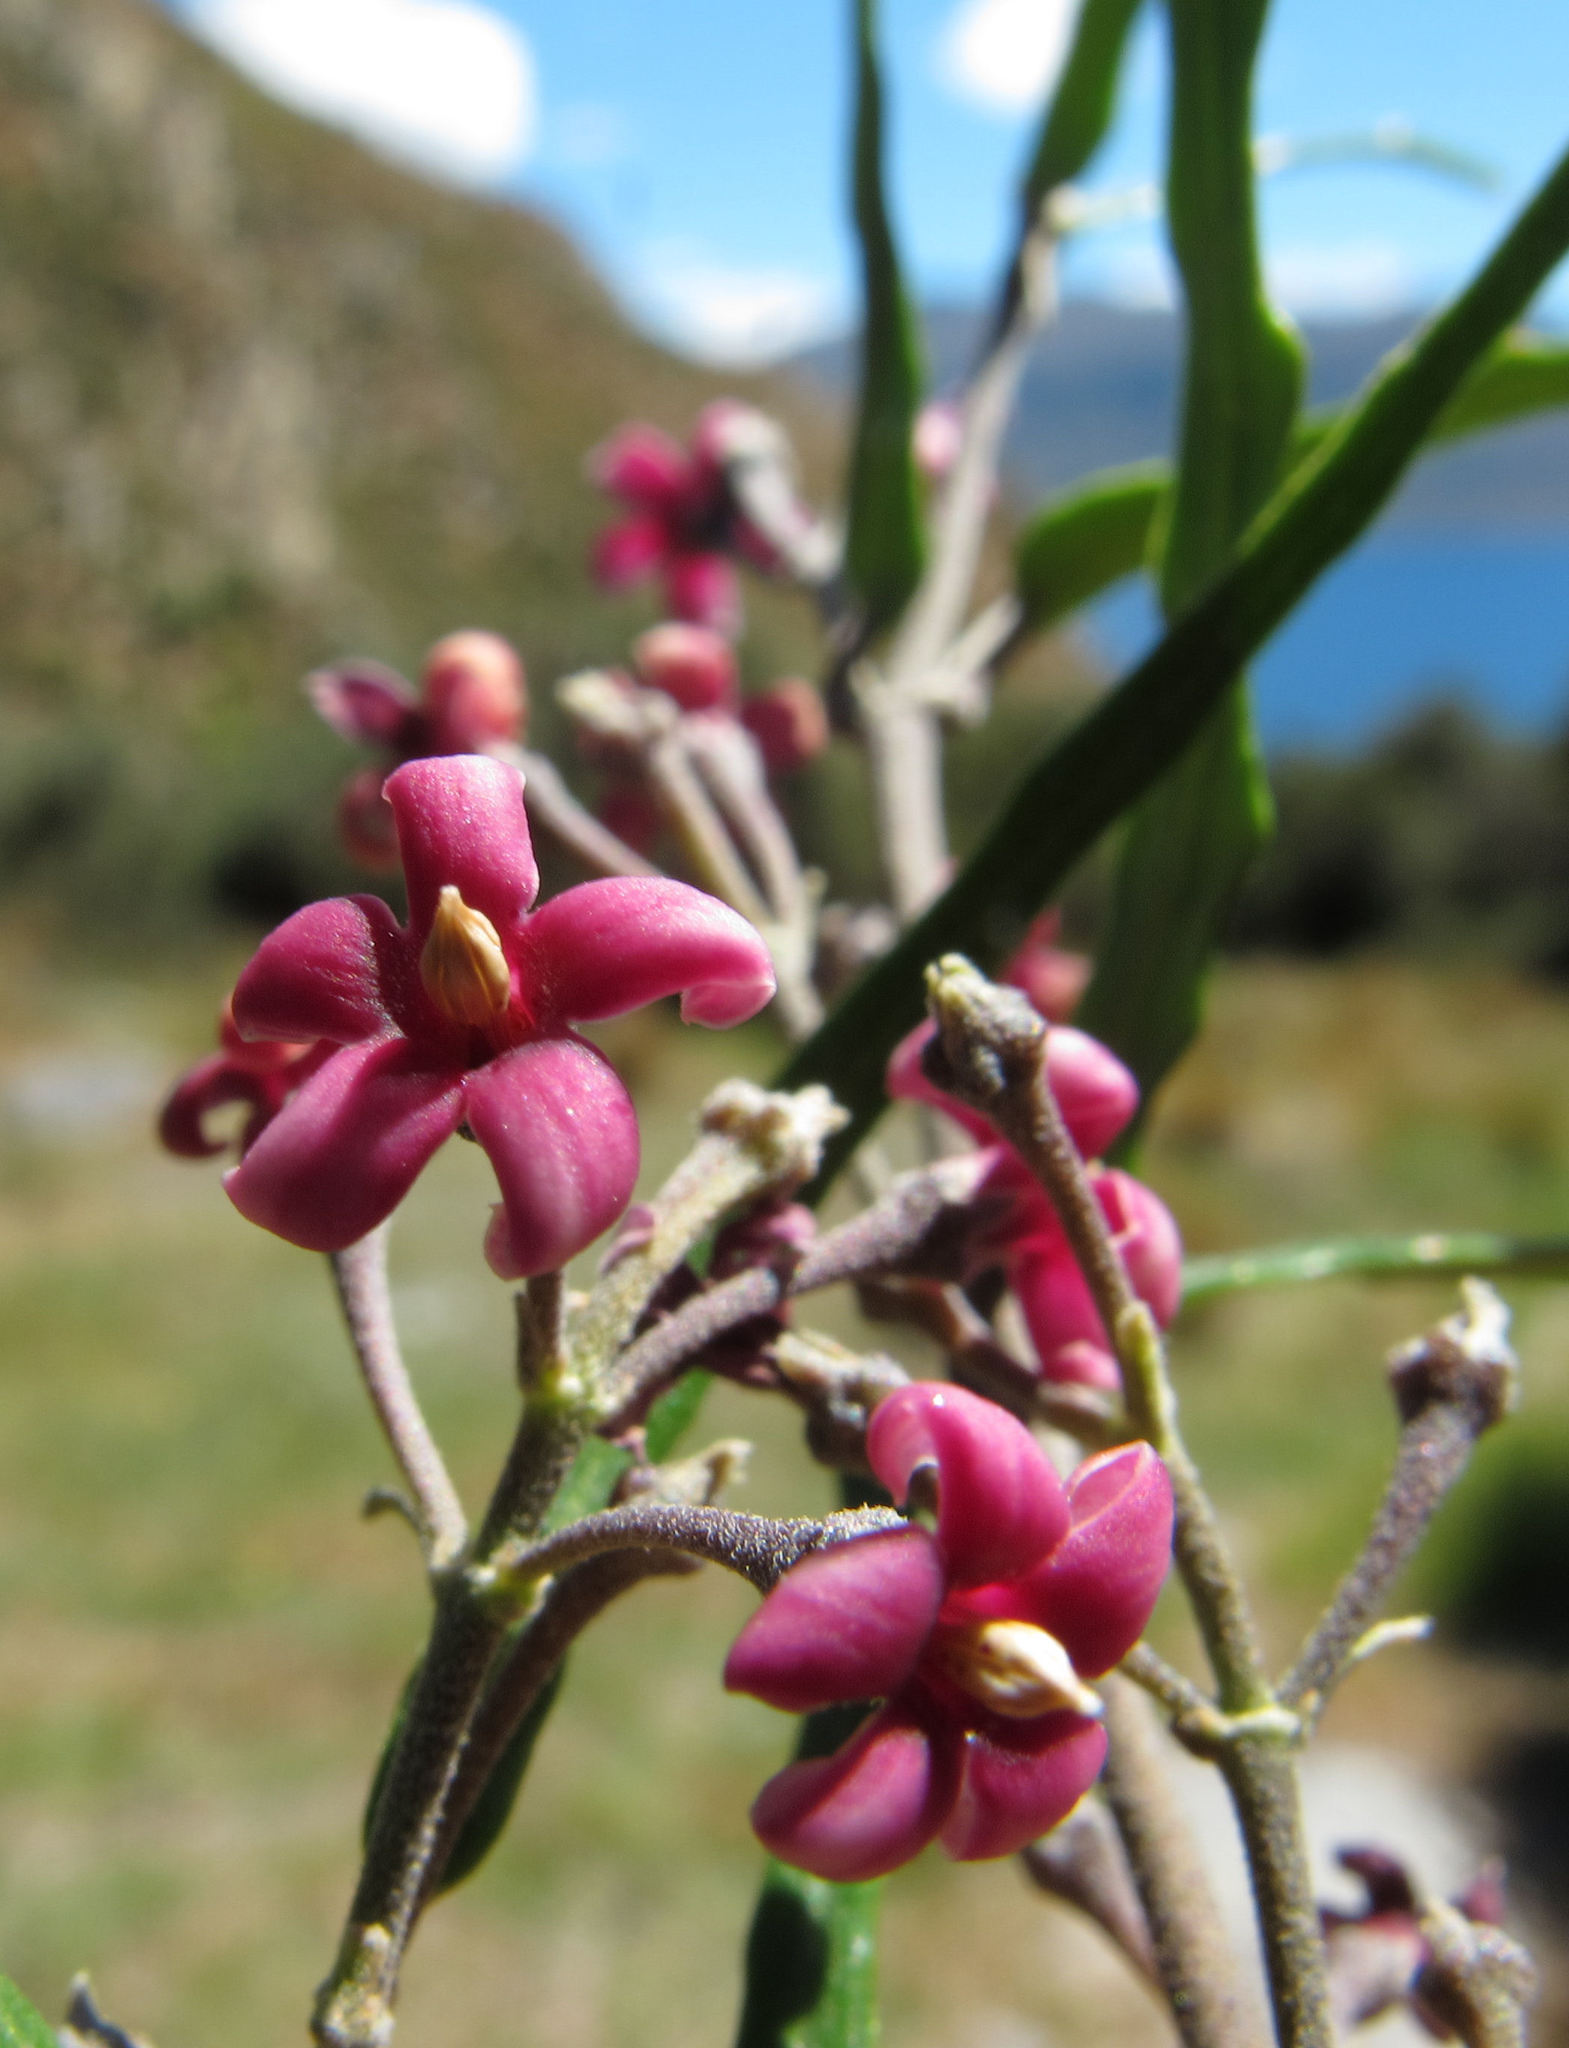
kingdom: Plantae
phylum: Tracheophyta
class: Magnoliopsida
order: Gentianales
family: Apocynaceae
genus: Parsonsia
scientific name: Parsonsia capsularis
